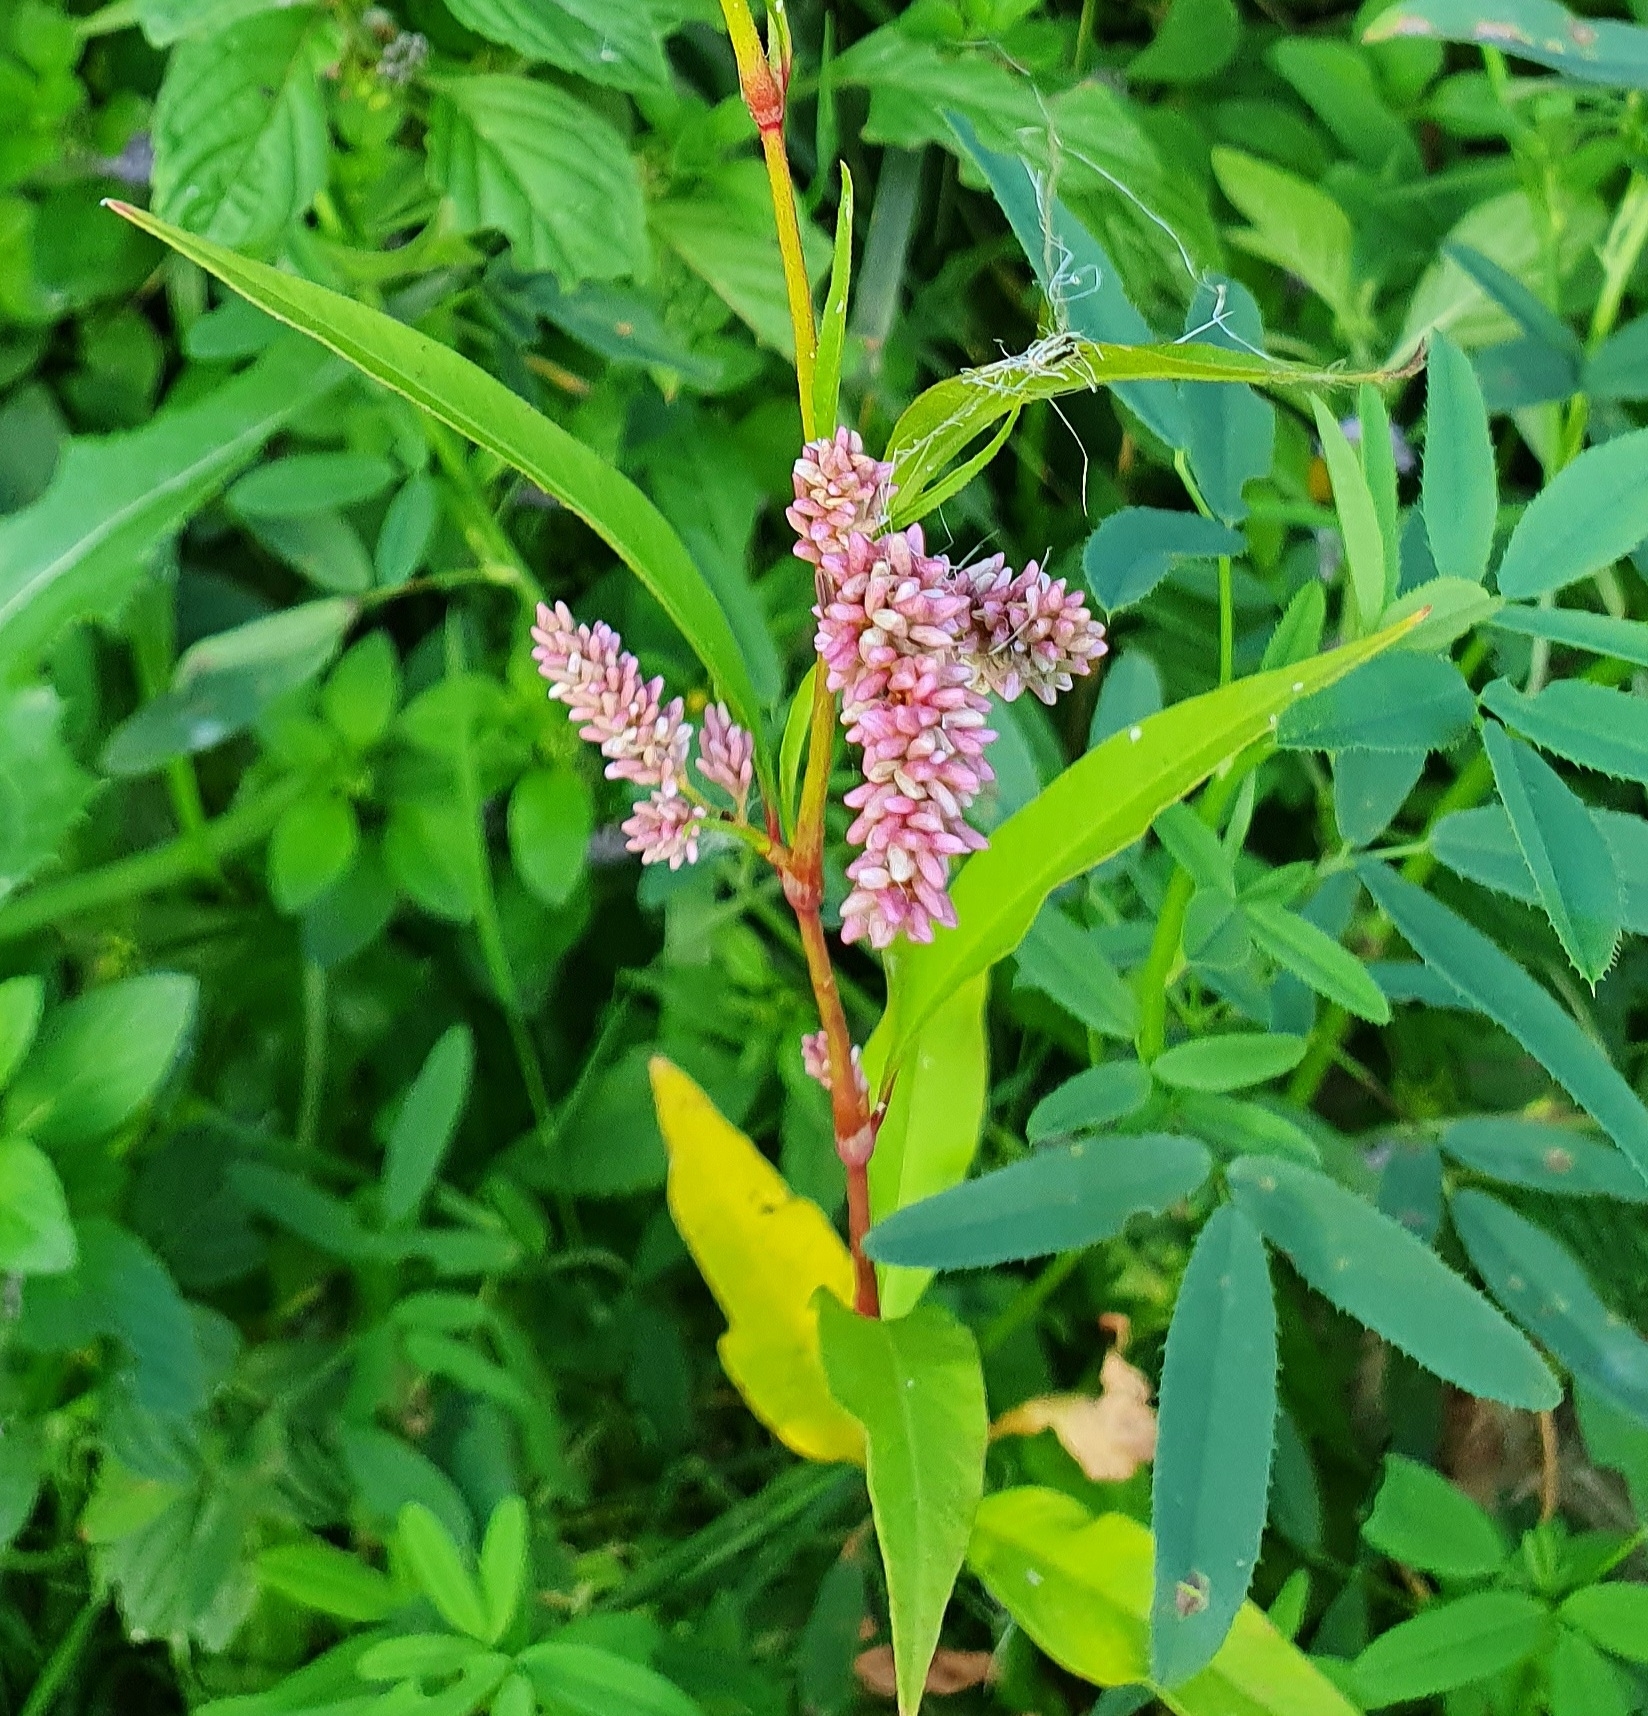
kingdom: Plantae
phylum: Tracheophyta
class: Magnoliopsida
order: Caryophyllales
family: Polygonaceae
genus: Persicaria
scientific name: Persicaria lapathifolia
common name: Curlytop knotweed
